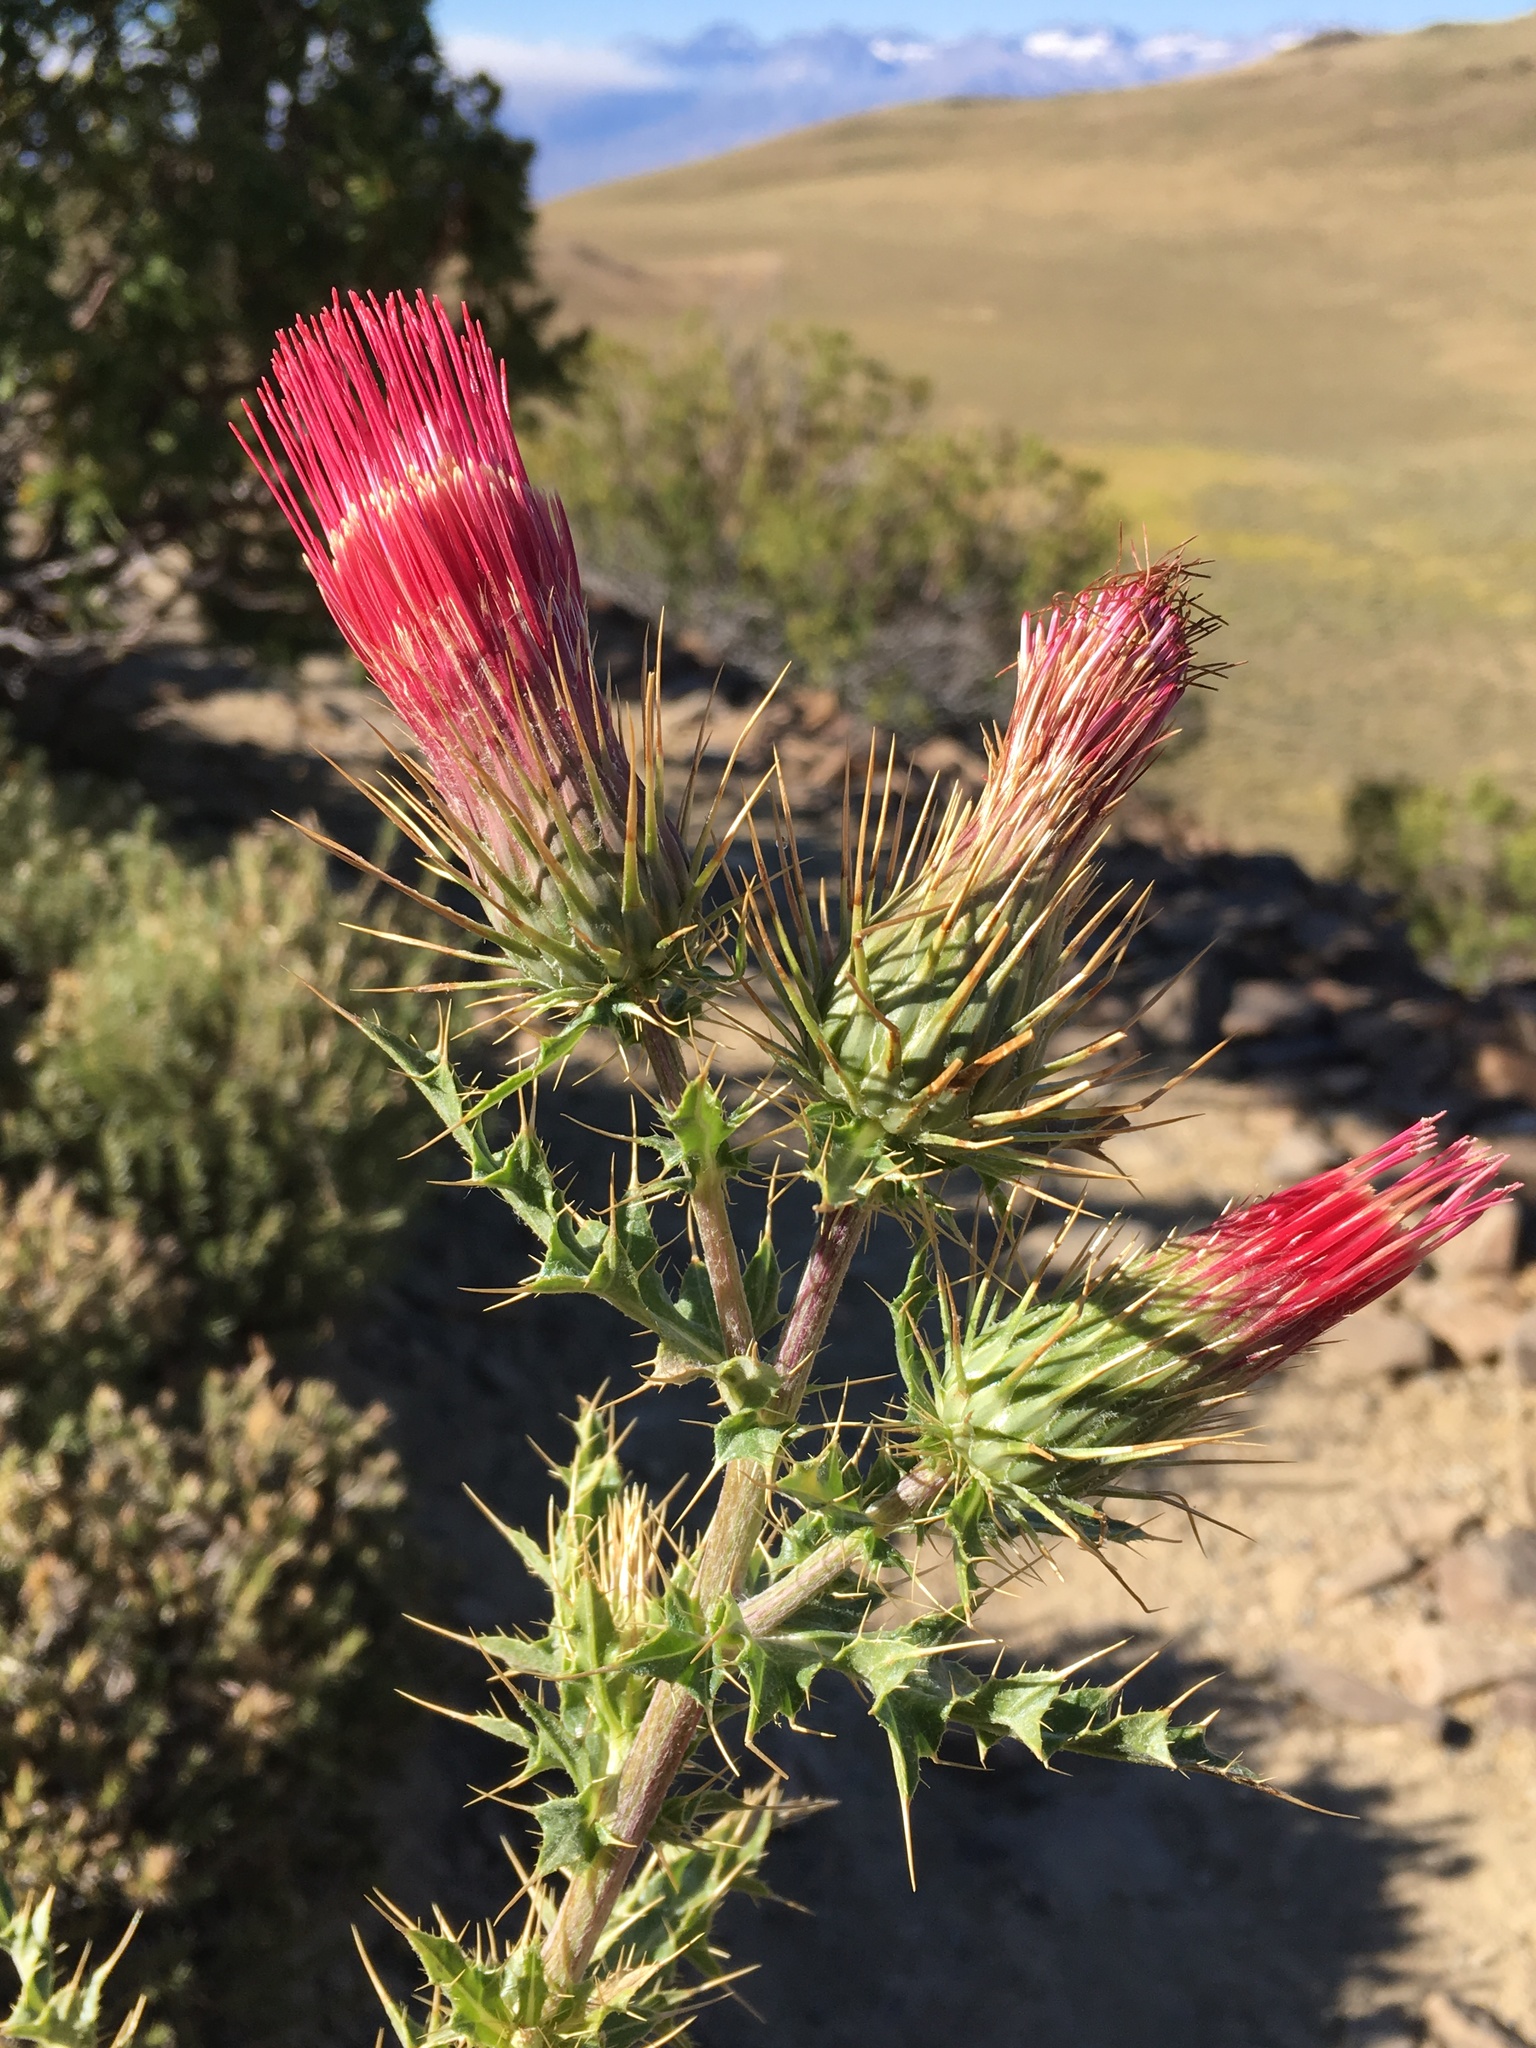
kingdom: Plantae
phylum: Tracheophyta
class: Magnoliopsida
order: Asterales
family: Asteraceae
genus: Cirsium
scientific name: Cirsium arizonicum
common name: Arizona thistle
